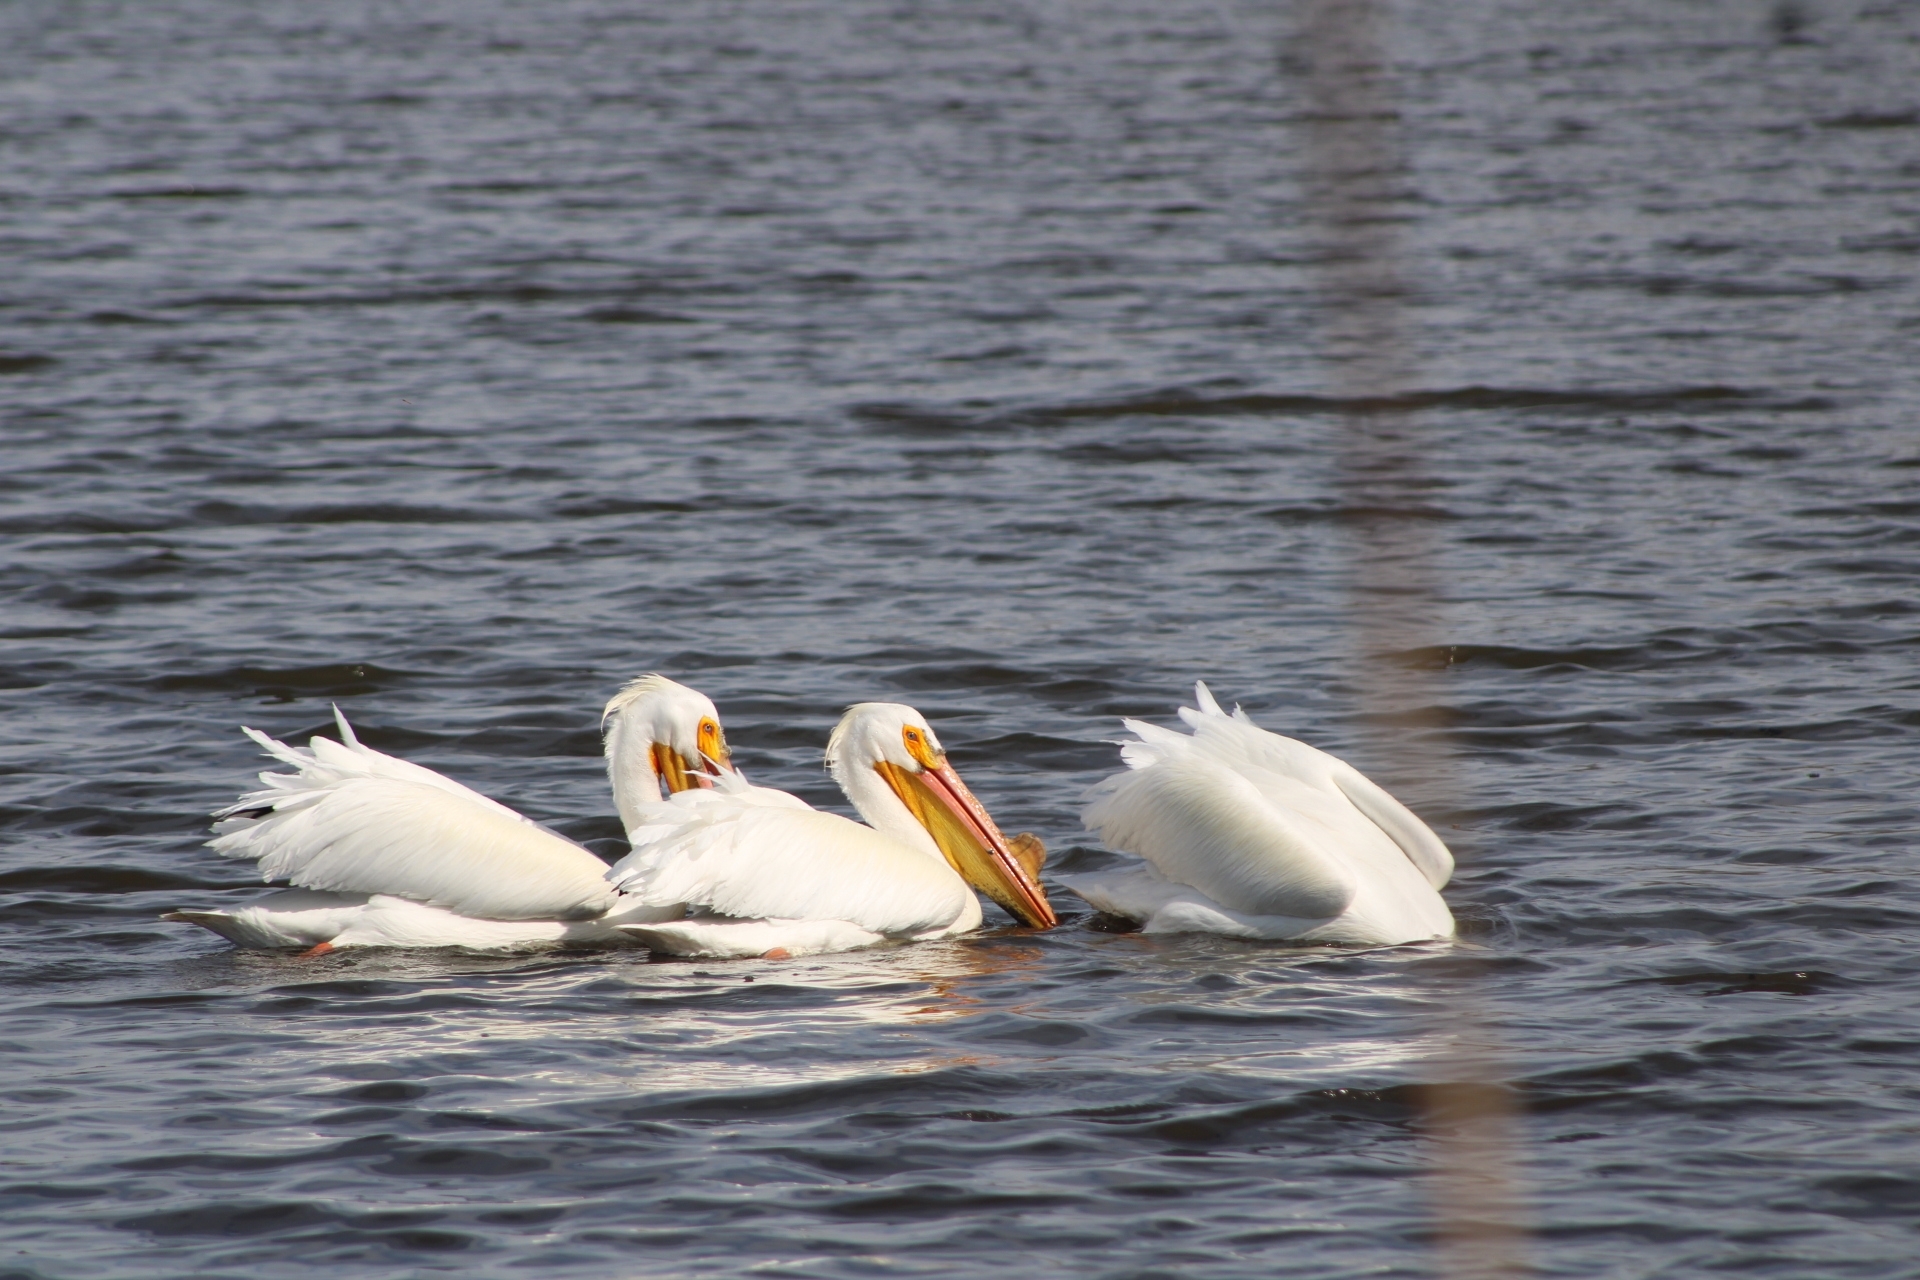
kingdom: Animalia
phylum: Chordata
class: Aves
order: Pelecaniformes
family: Pelecanidae
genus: Pelecanus
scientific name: Pelecanus erythrorhynchos
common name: American white pelican
